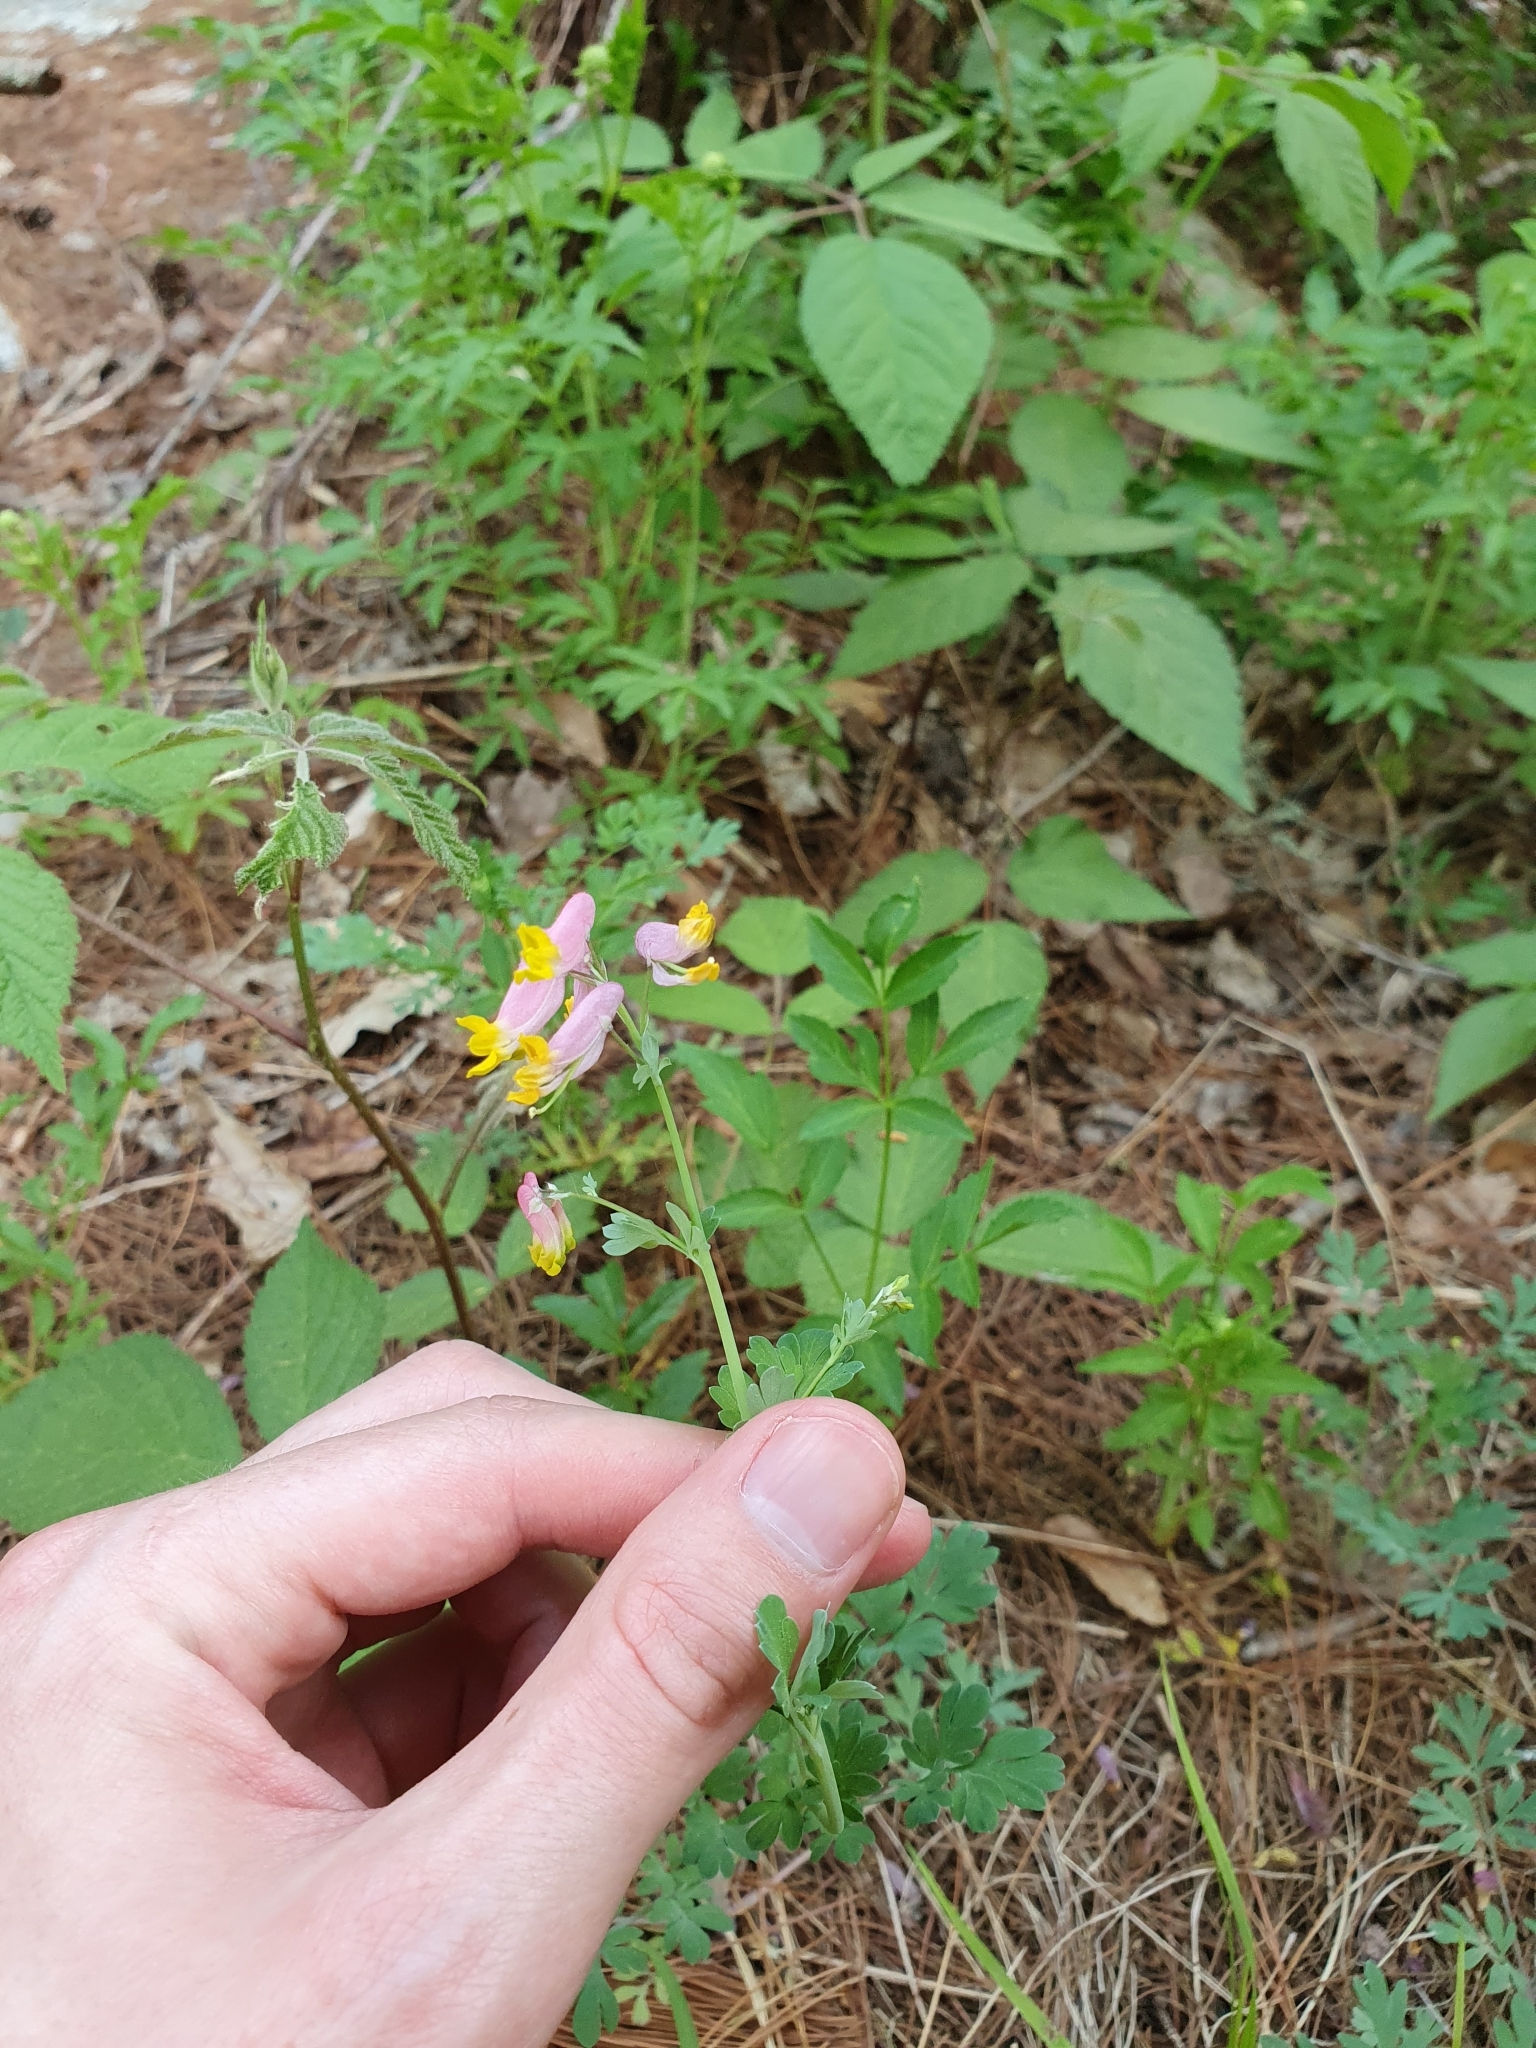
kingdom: Plantae
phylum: Tracheophyta
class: Magnoliopsida
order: Ranunculales
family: Papaveraceae
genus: Capnoides
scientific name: Capnoides sempervirens
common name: Rock harlequin
